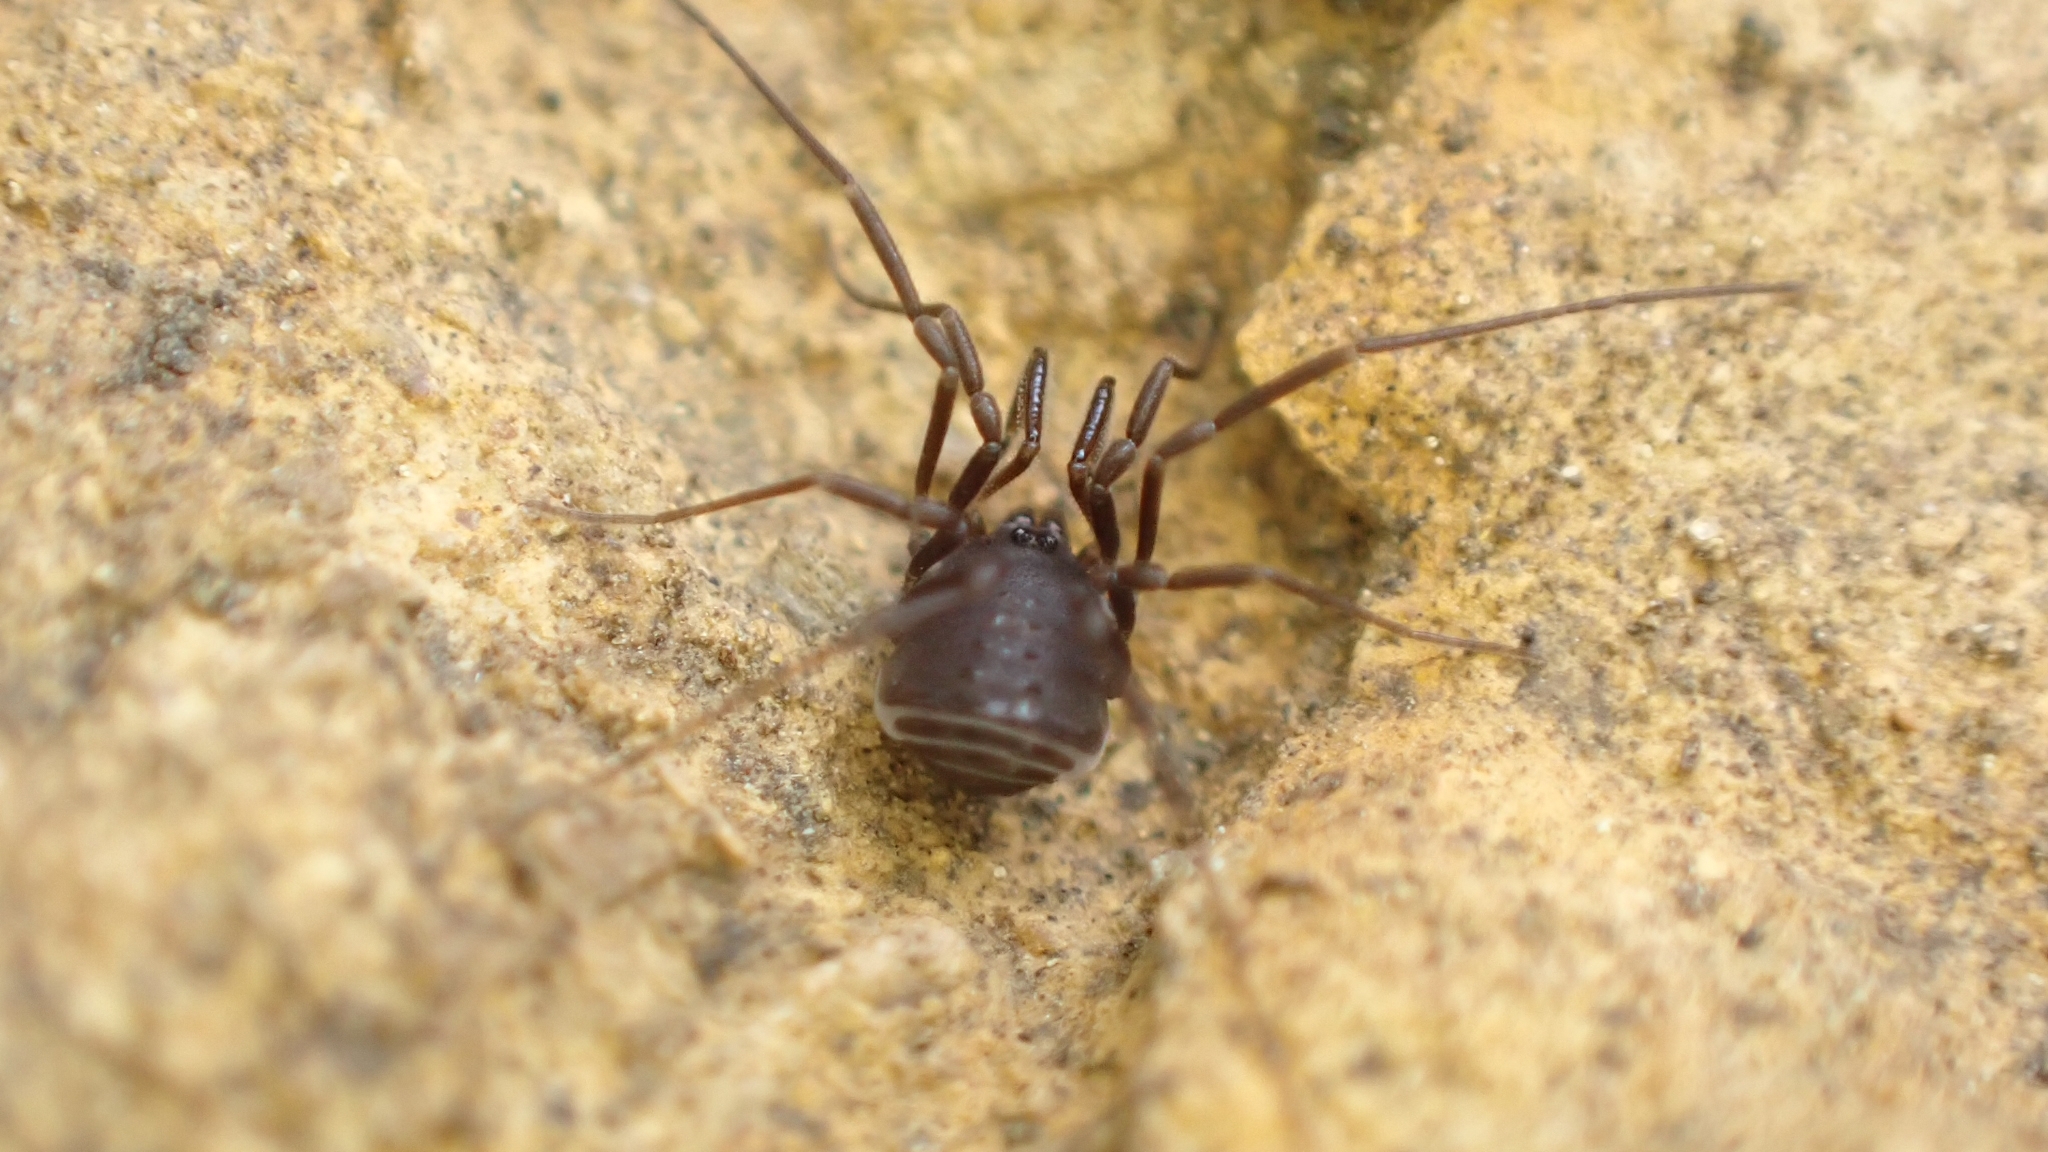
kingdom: Animalia
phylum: Arthropoda
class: Arachnida
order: Opiliones
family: Nemastomatidae
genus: Nemastomella
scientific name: Nemastomella hankiewiczii
